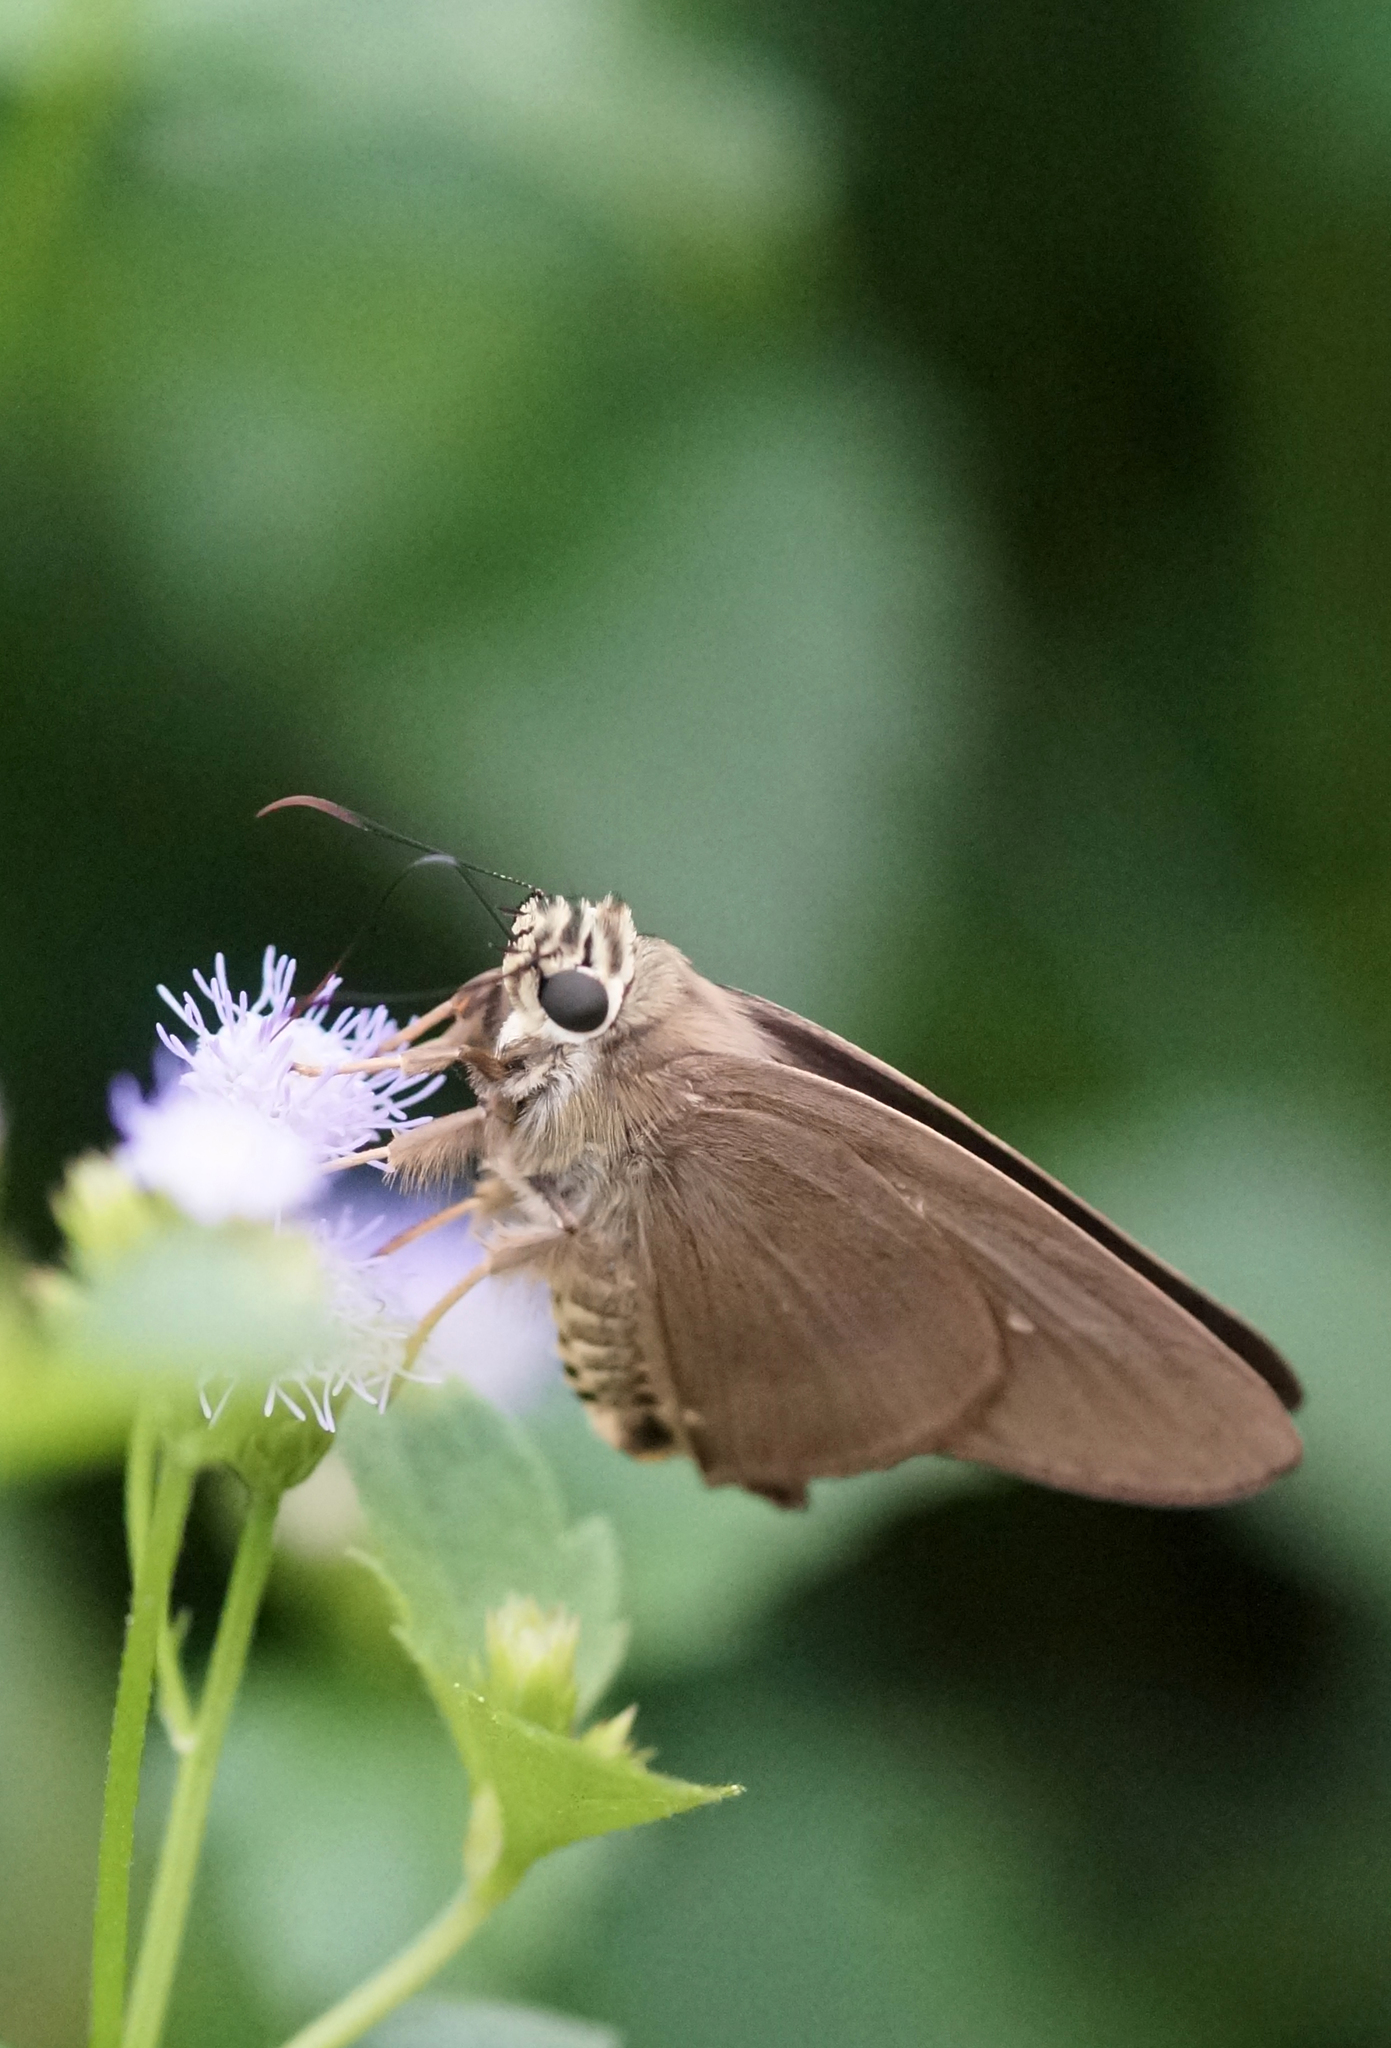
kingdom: Animalia
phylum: Arthropoda
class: Insecta
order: Lepidoptera
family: Hesperiidae
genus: Badamia
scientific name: Badamia exclamationis
